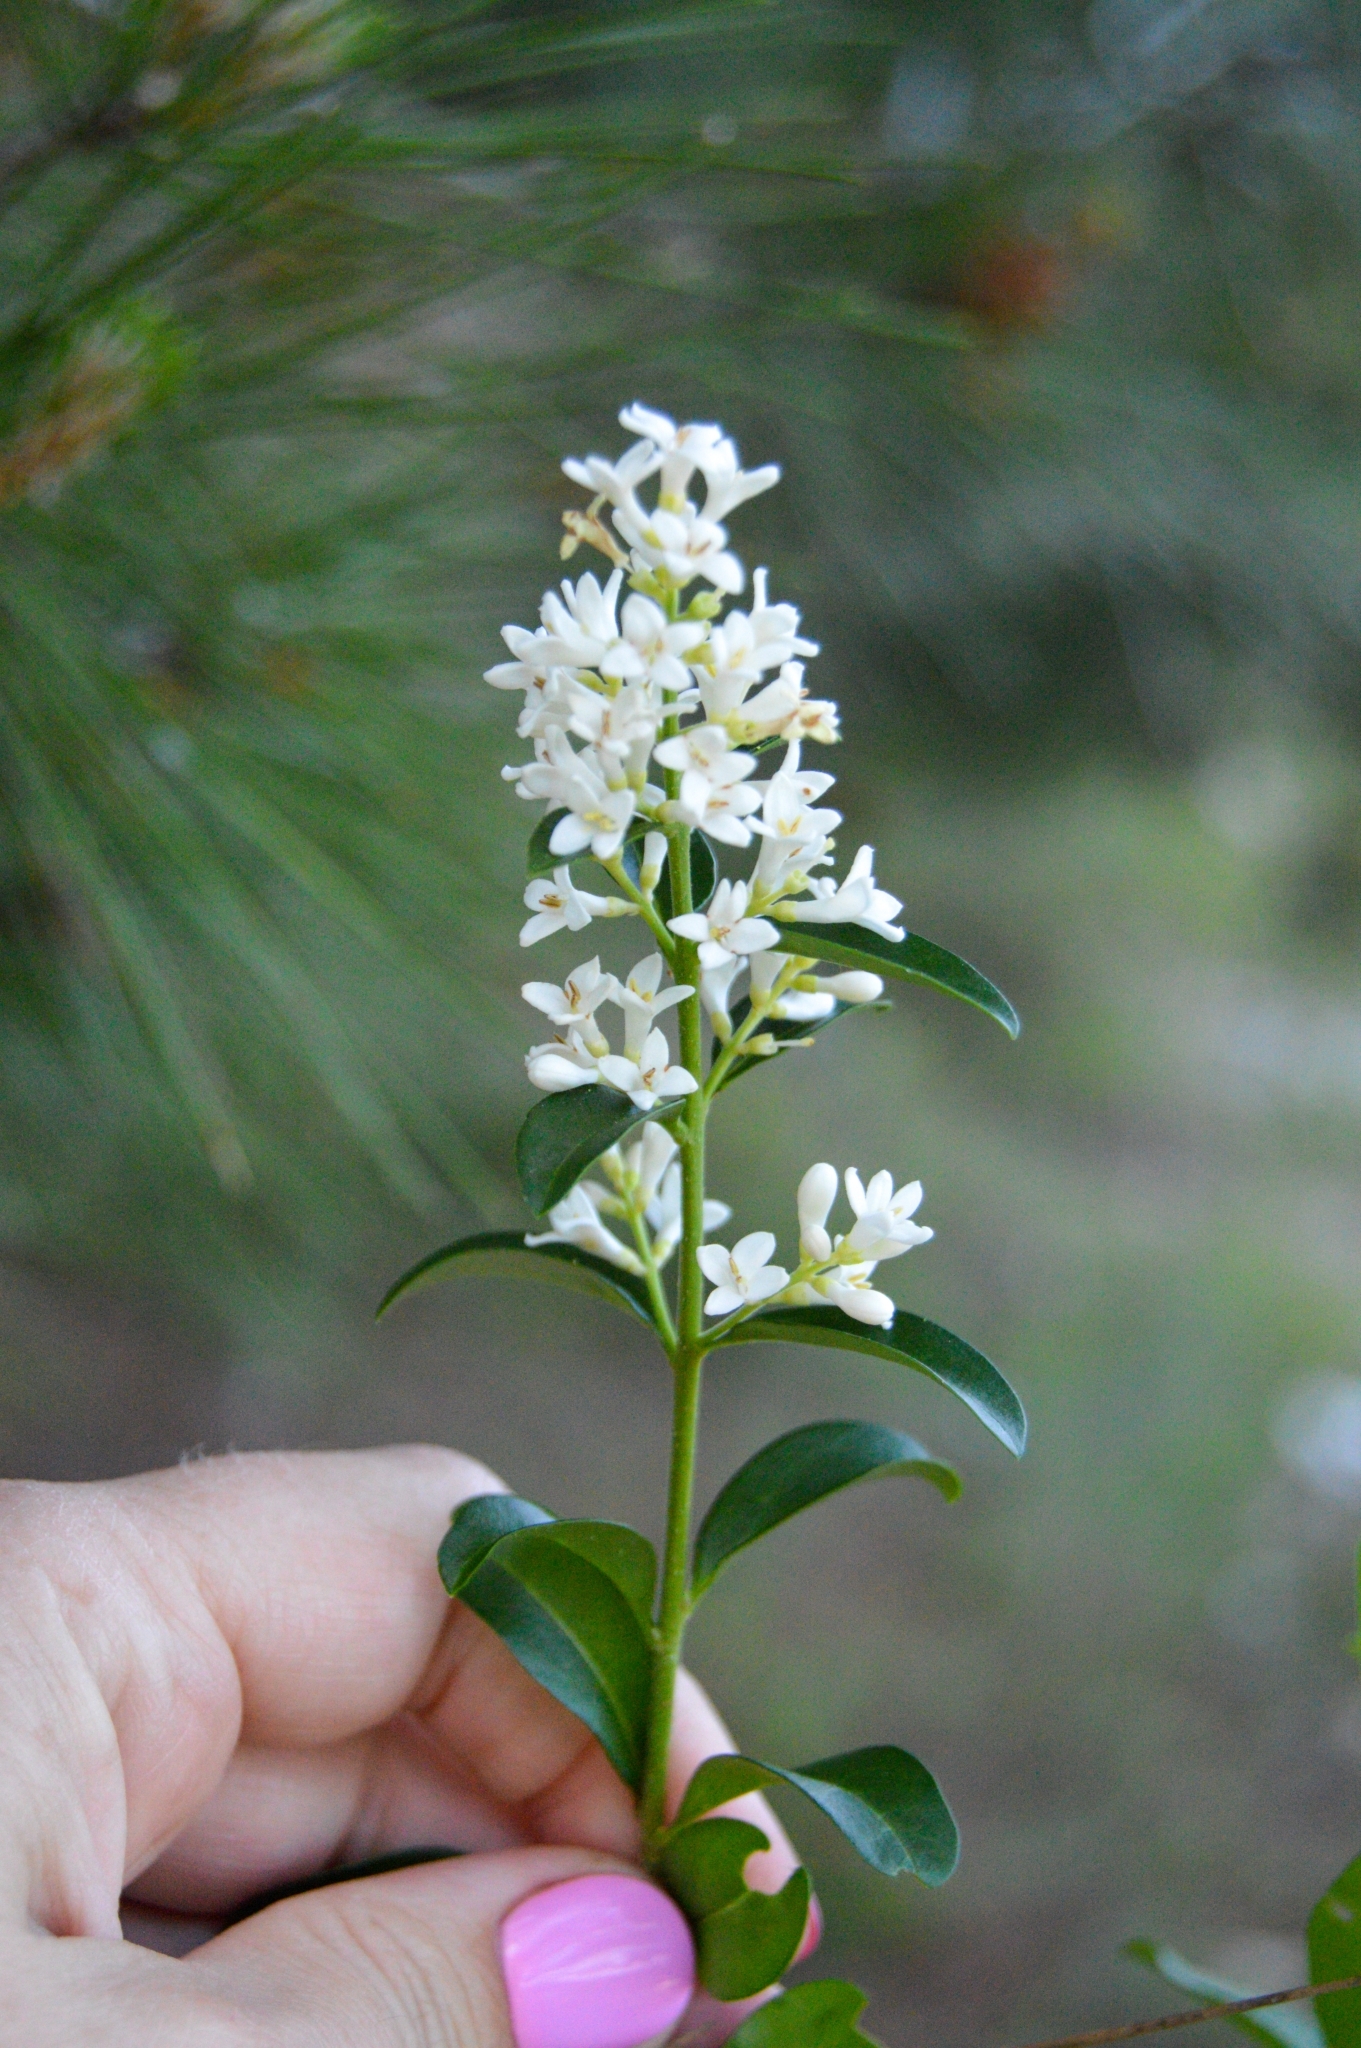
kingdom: Plantae
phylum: Tracheophyta
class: Magnoliopsida
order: Lamiales
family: Oleaceae
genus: Ligustrum
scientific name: Ligustrum vulgare
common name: Wild privet
